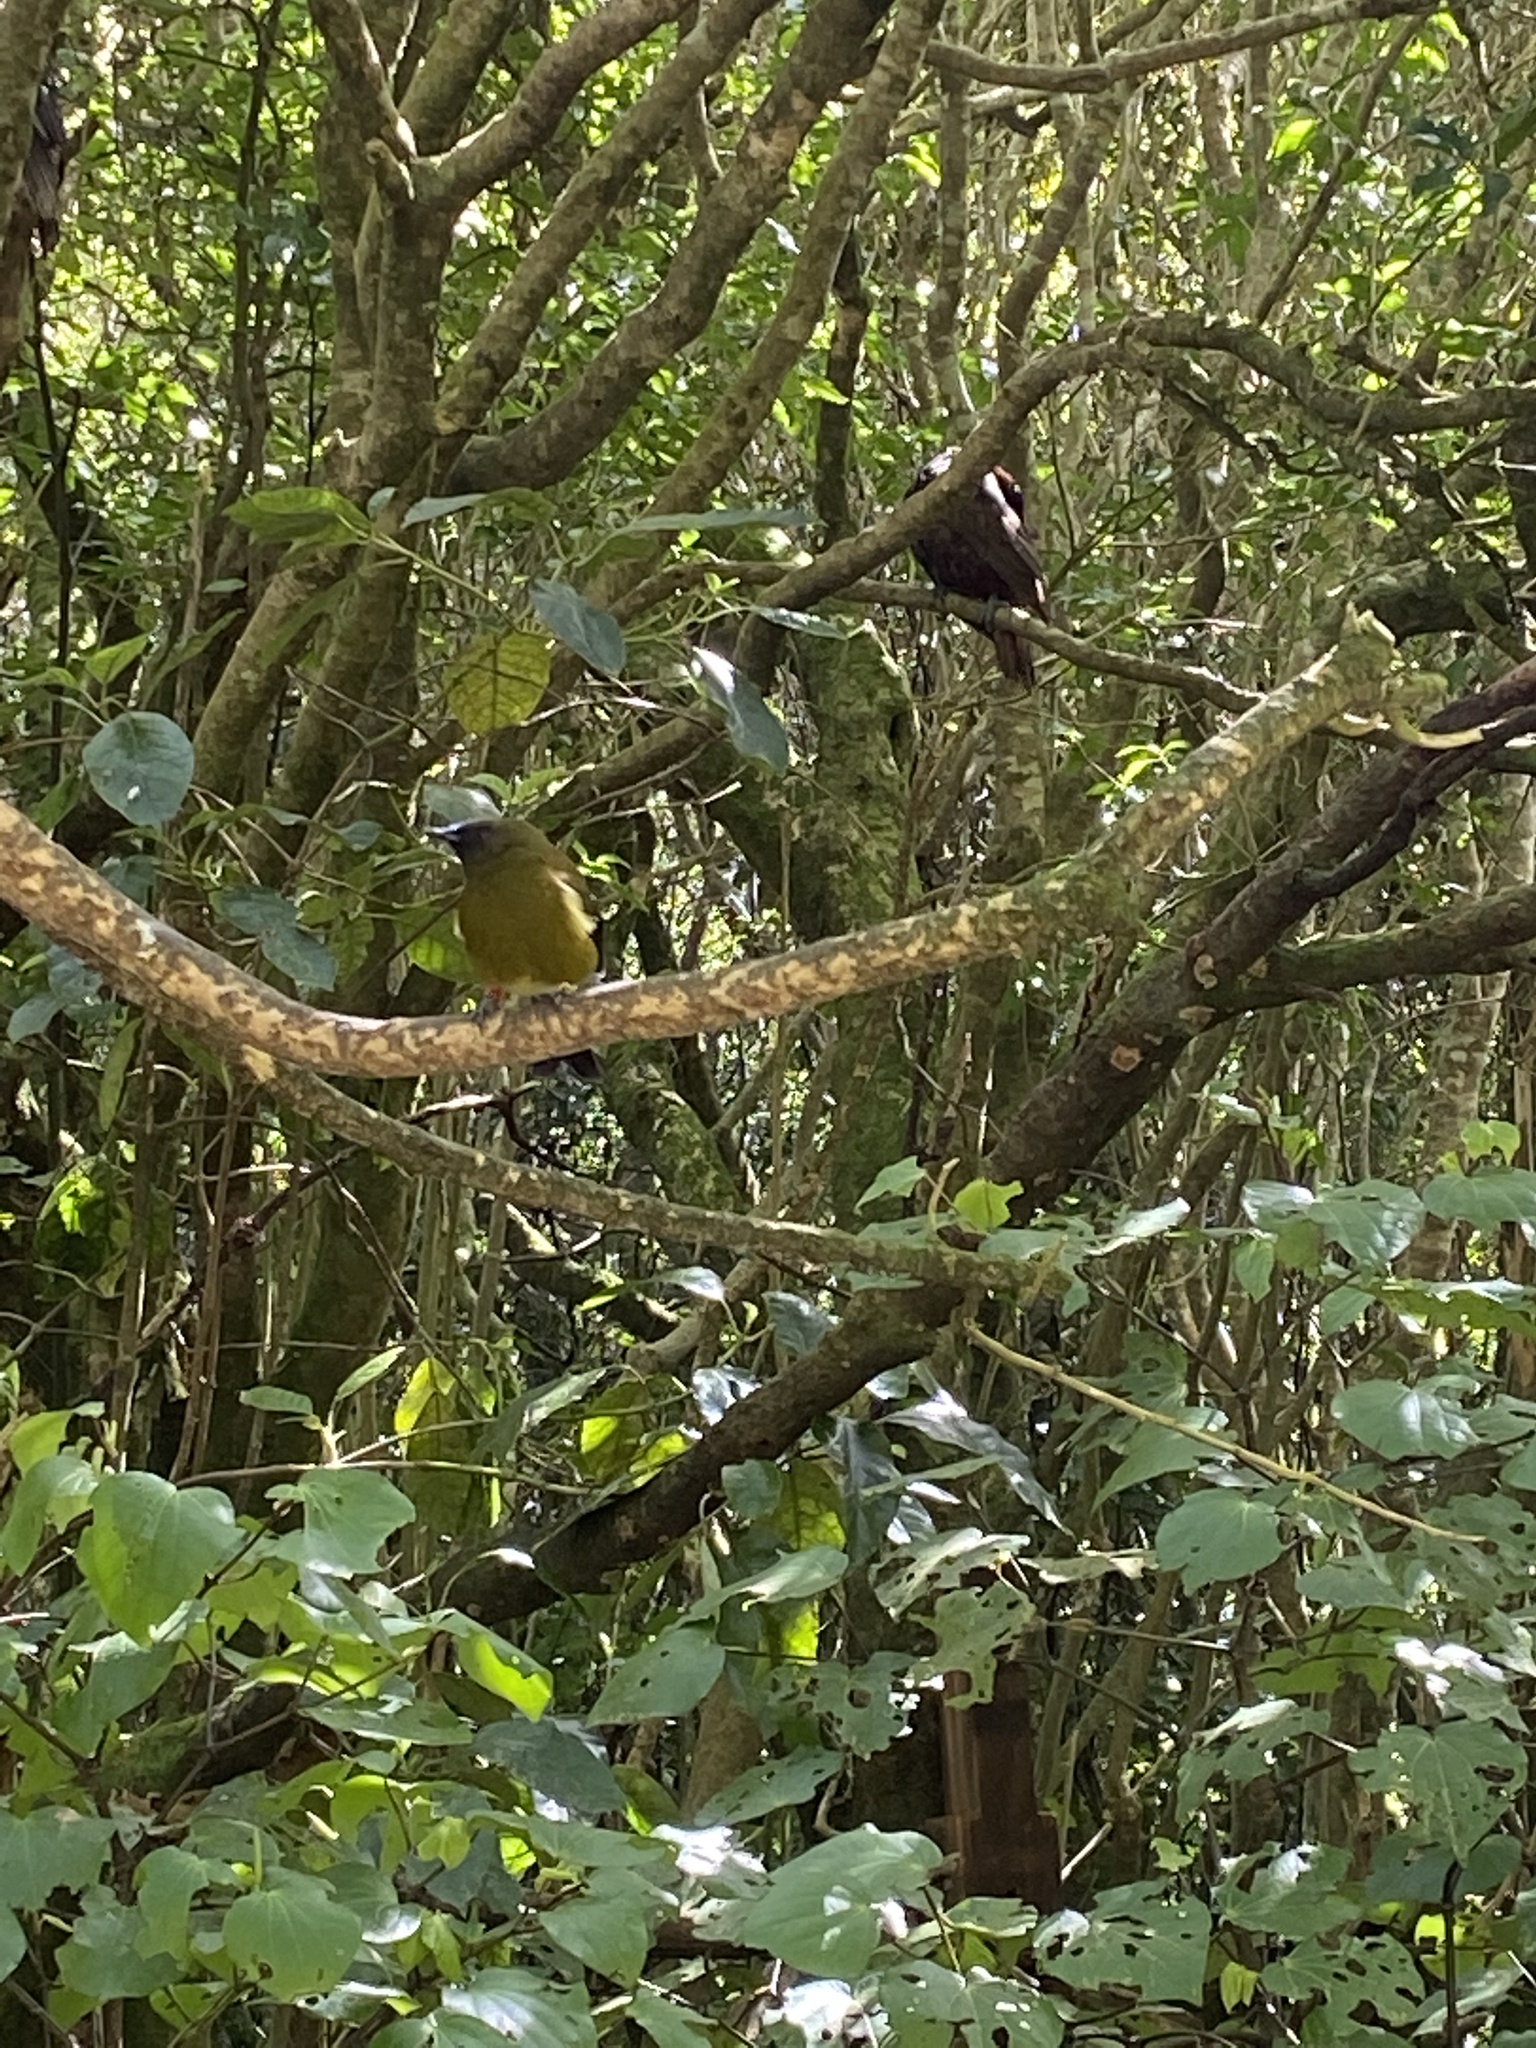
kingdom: Animalia
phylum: Chordata
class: Aves
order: Passeriformes
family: Meliphagidae
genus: Anthornis
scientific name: Anthornis melanura
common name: New zealand bellbird
